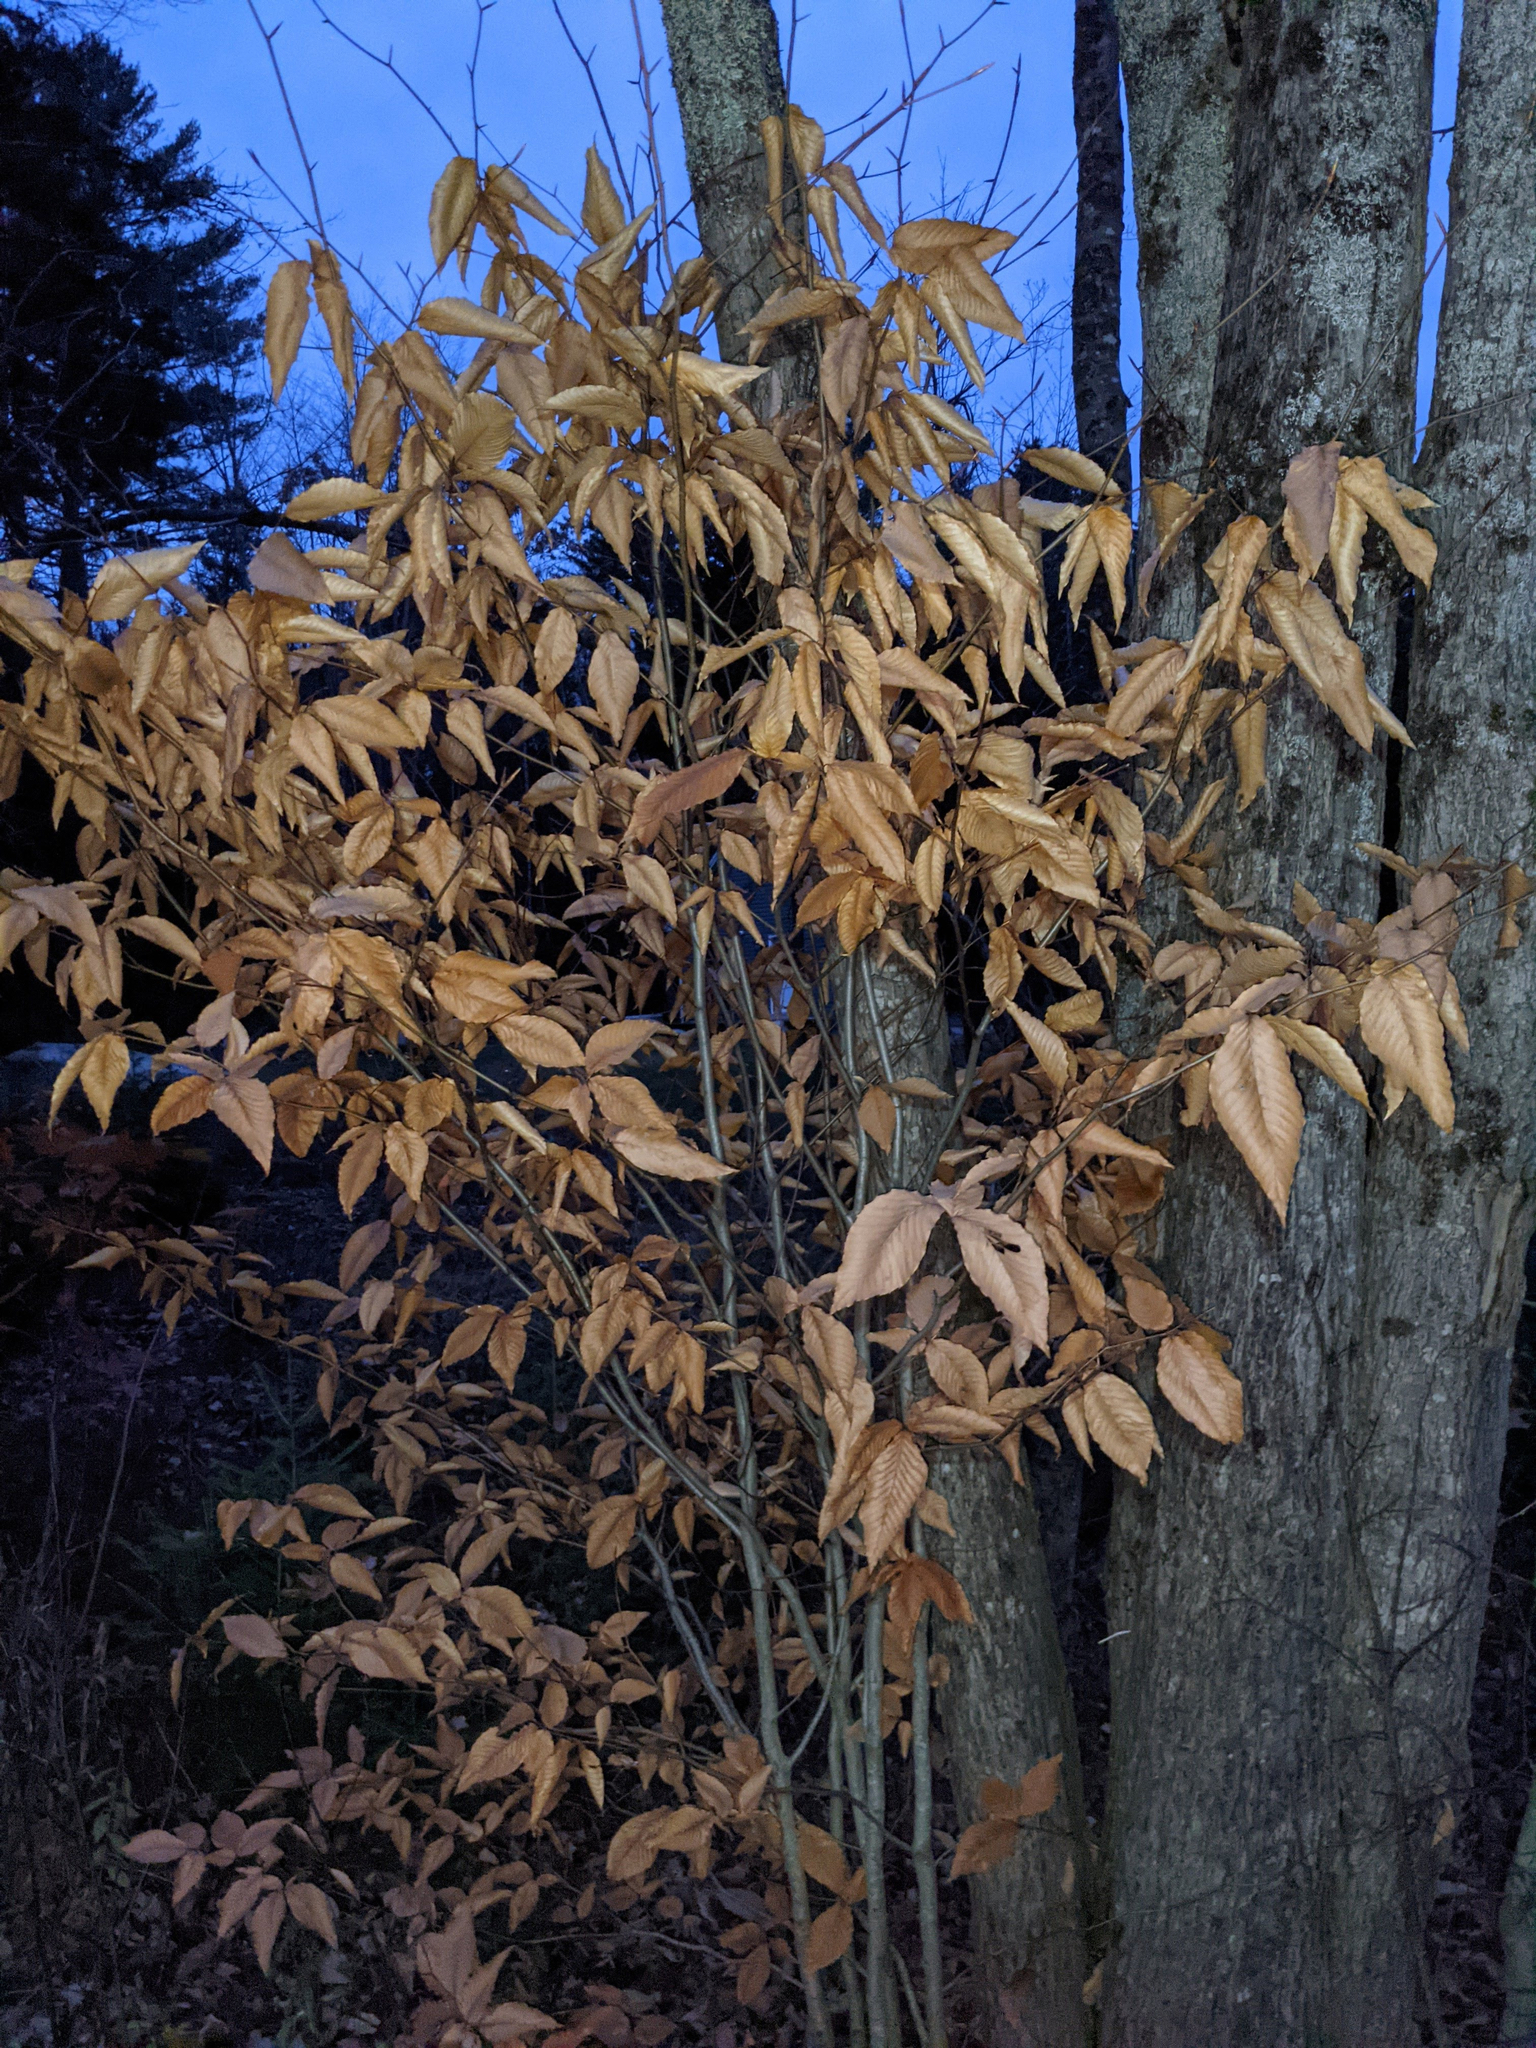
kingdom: Plantae
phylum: Tracheophyta
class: Magnoliopsida
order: Fagales
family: Fagaceae
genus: Fagus
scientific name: Fagus grandifolia
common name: American beech
